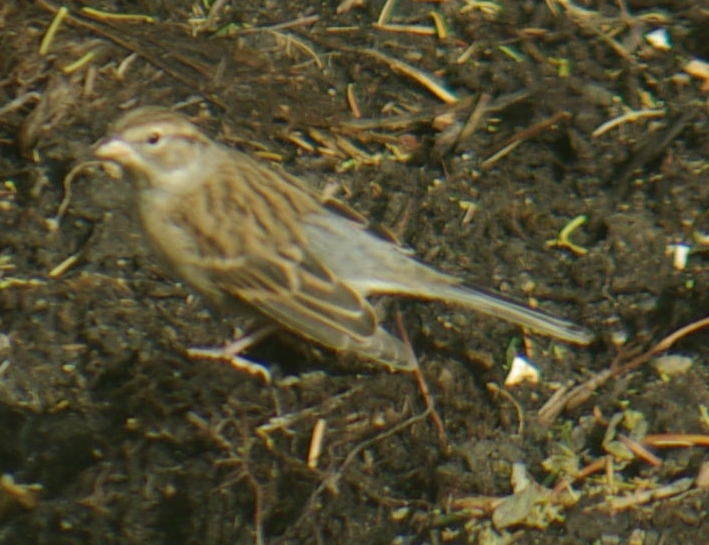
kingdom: Animalia
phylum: Chordata
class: Aves
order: Passeriformes
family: Passerellidae
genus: Spizella
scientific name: Spizella passerina
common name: Chipping sparrow
